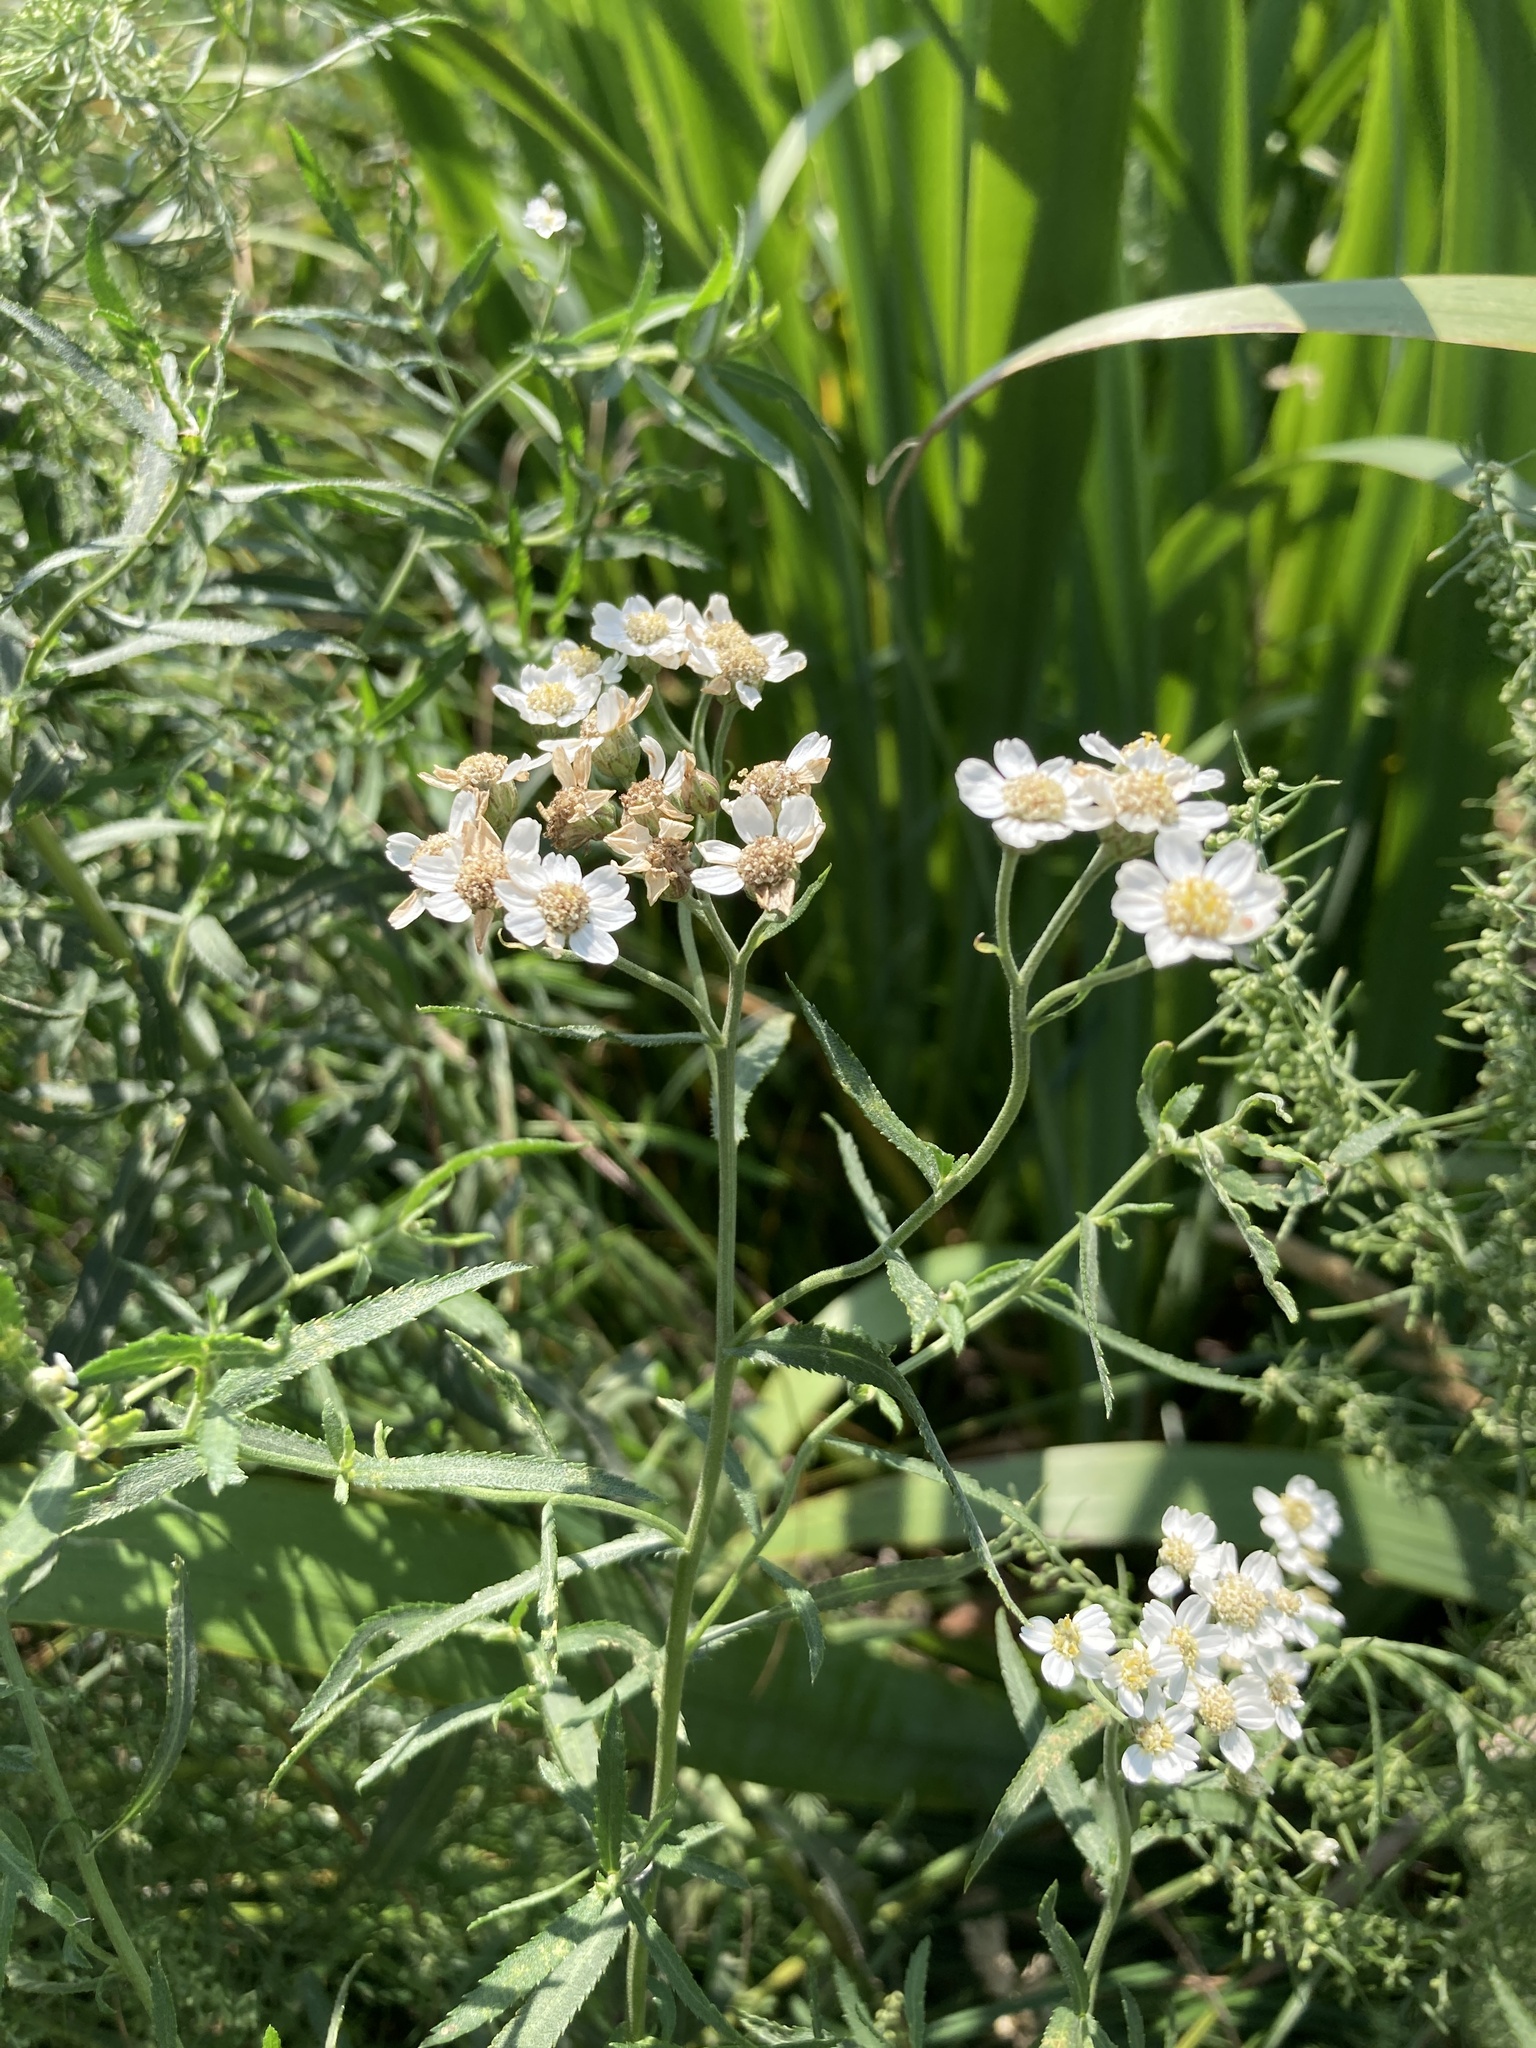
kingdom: Plantae
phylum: Tracheophyta
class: Magnoliopsida
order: Asterales
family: Asteraceae
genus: Achillea
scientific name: Achillea salicifolia
